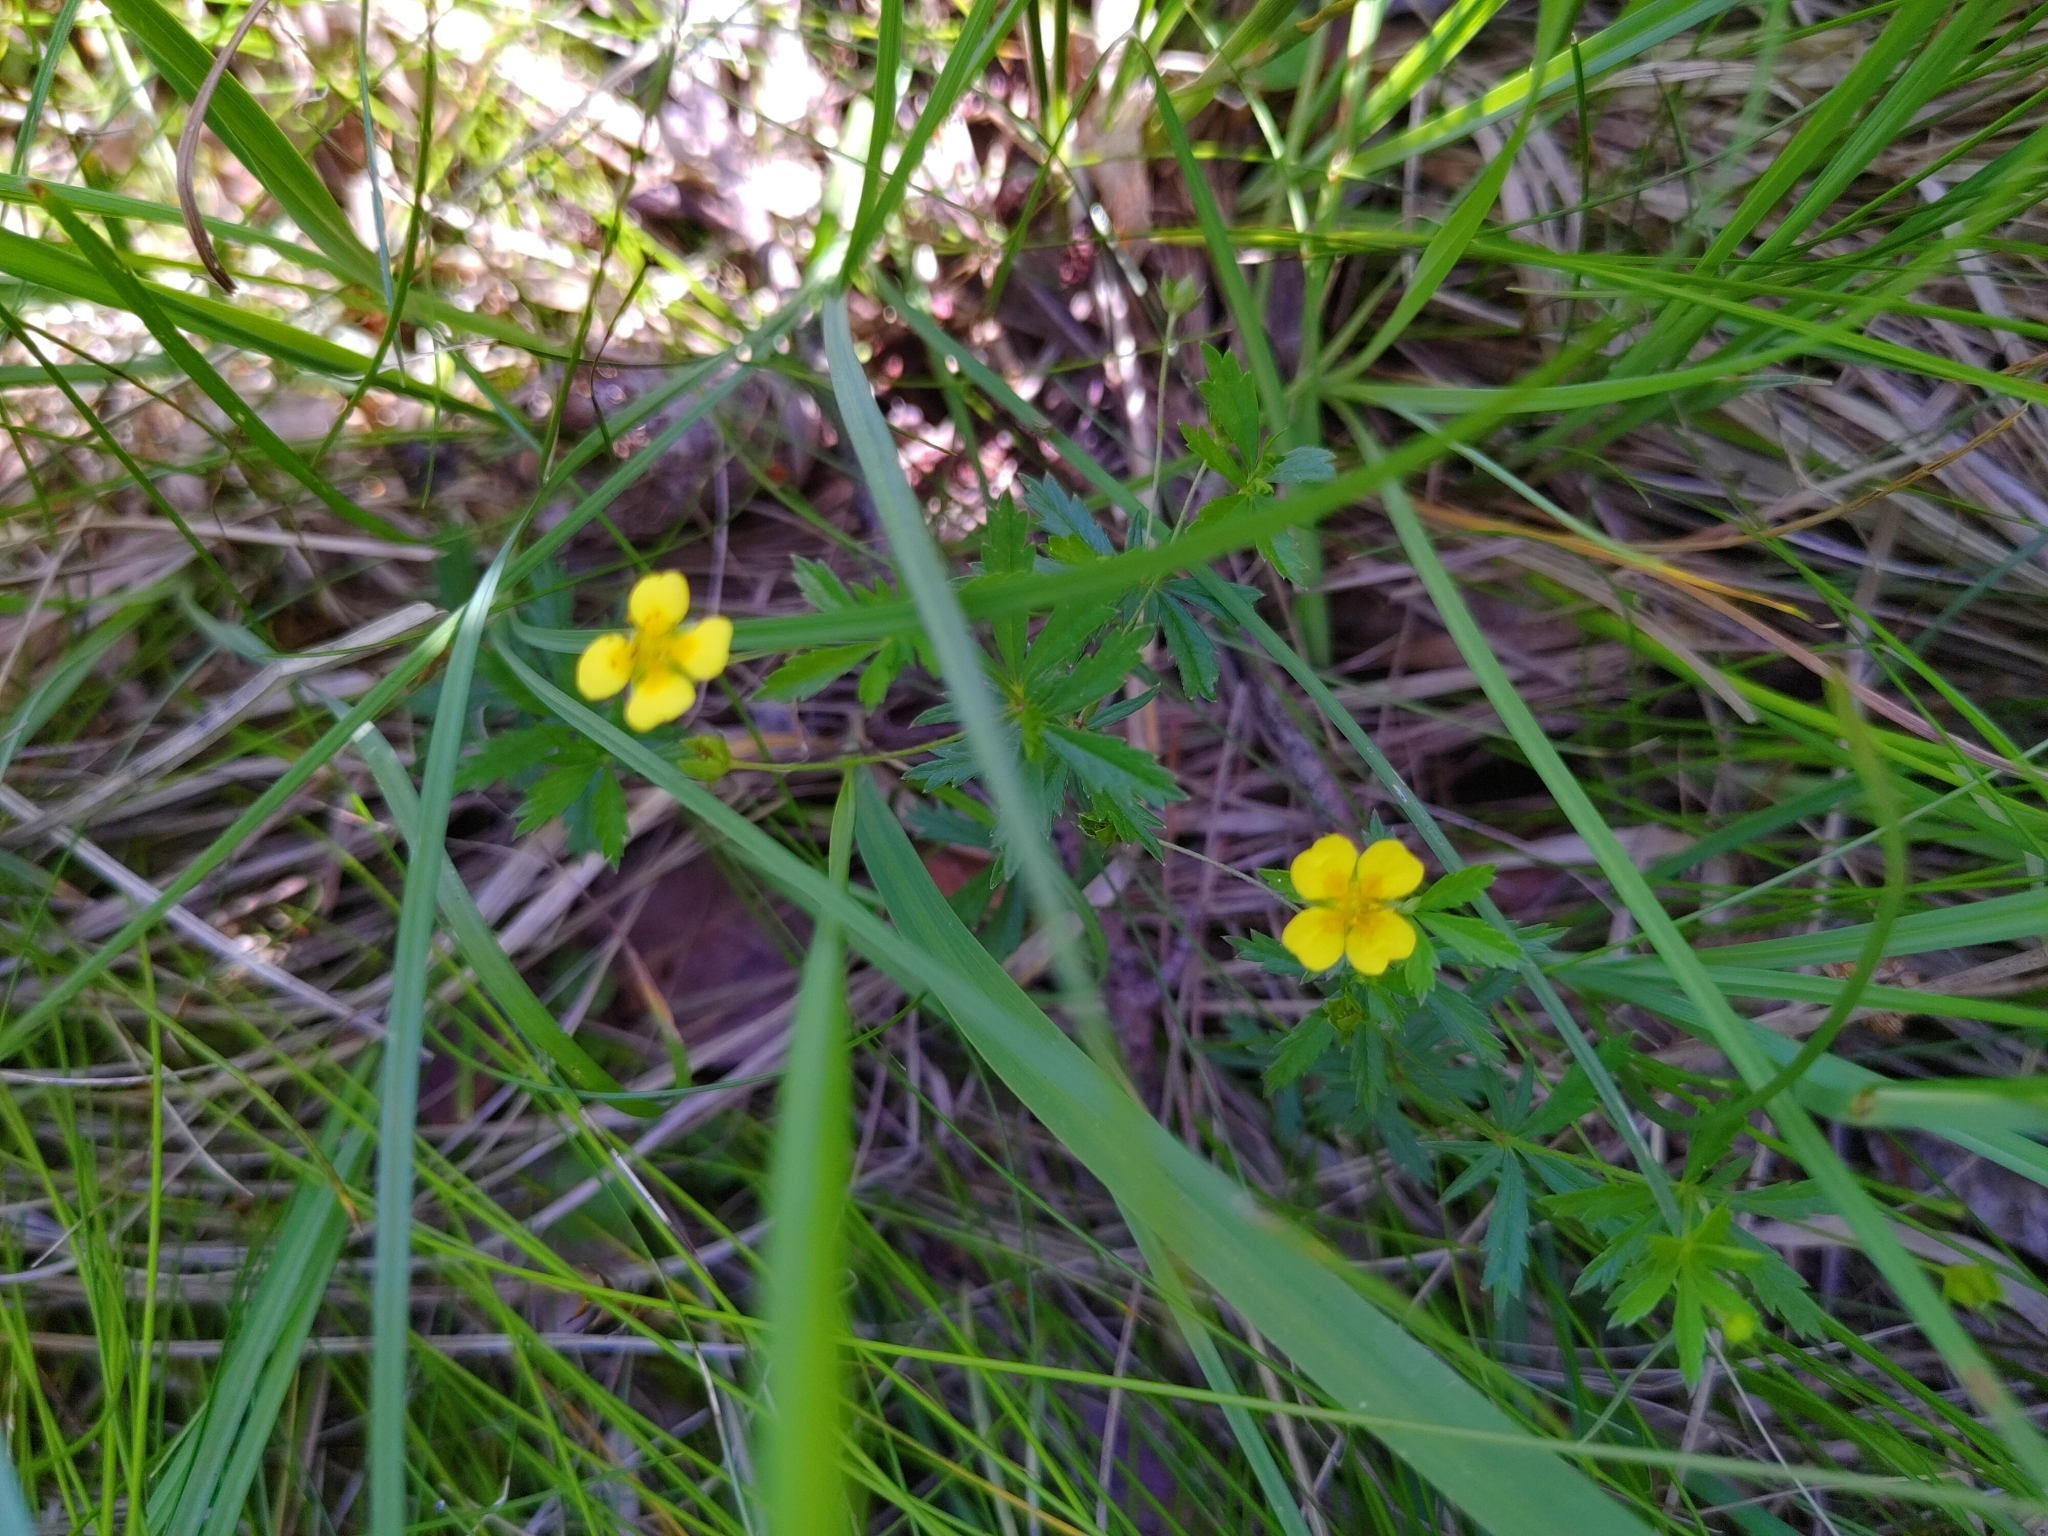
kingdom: Plantae
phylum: Tracheophyta
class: Magnoliopsida
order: Rosales
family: Rosaceae
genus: Potentilla
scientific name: Potentilla erecta
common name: Tormentil
